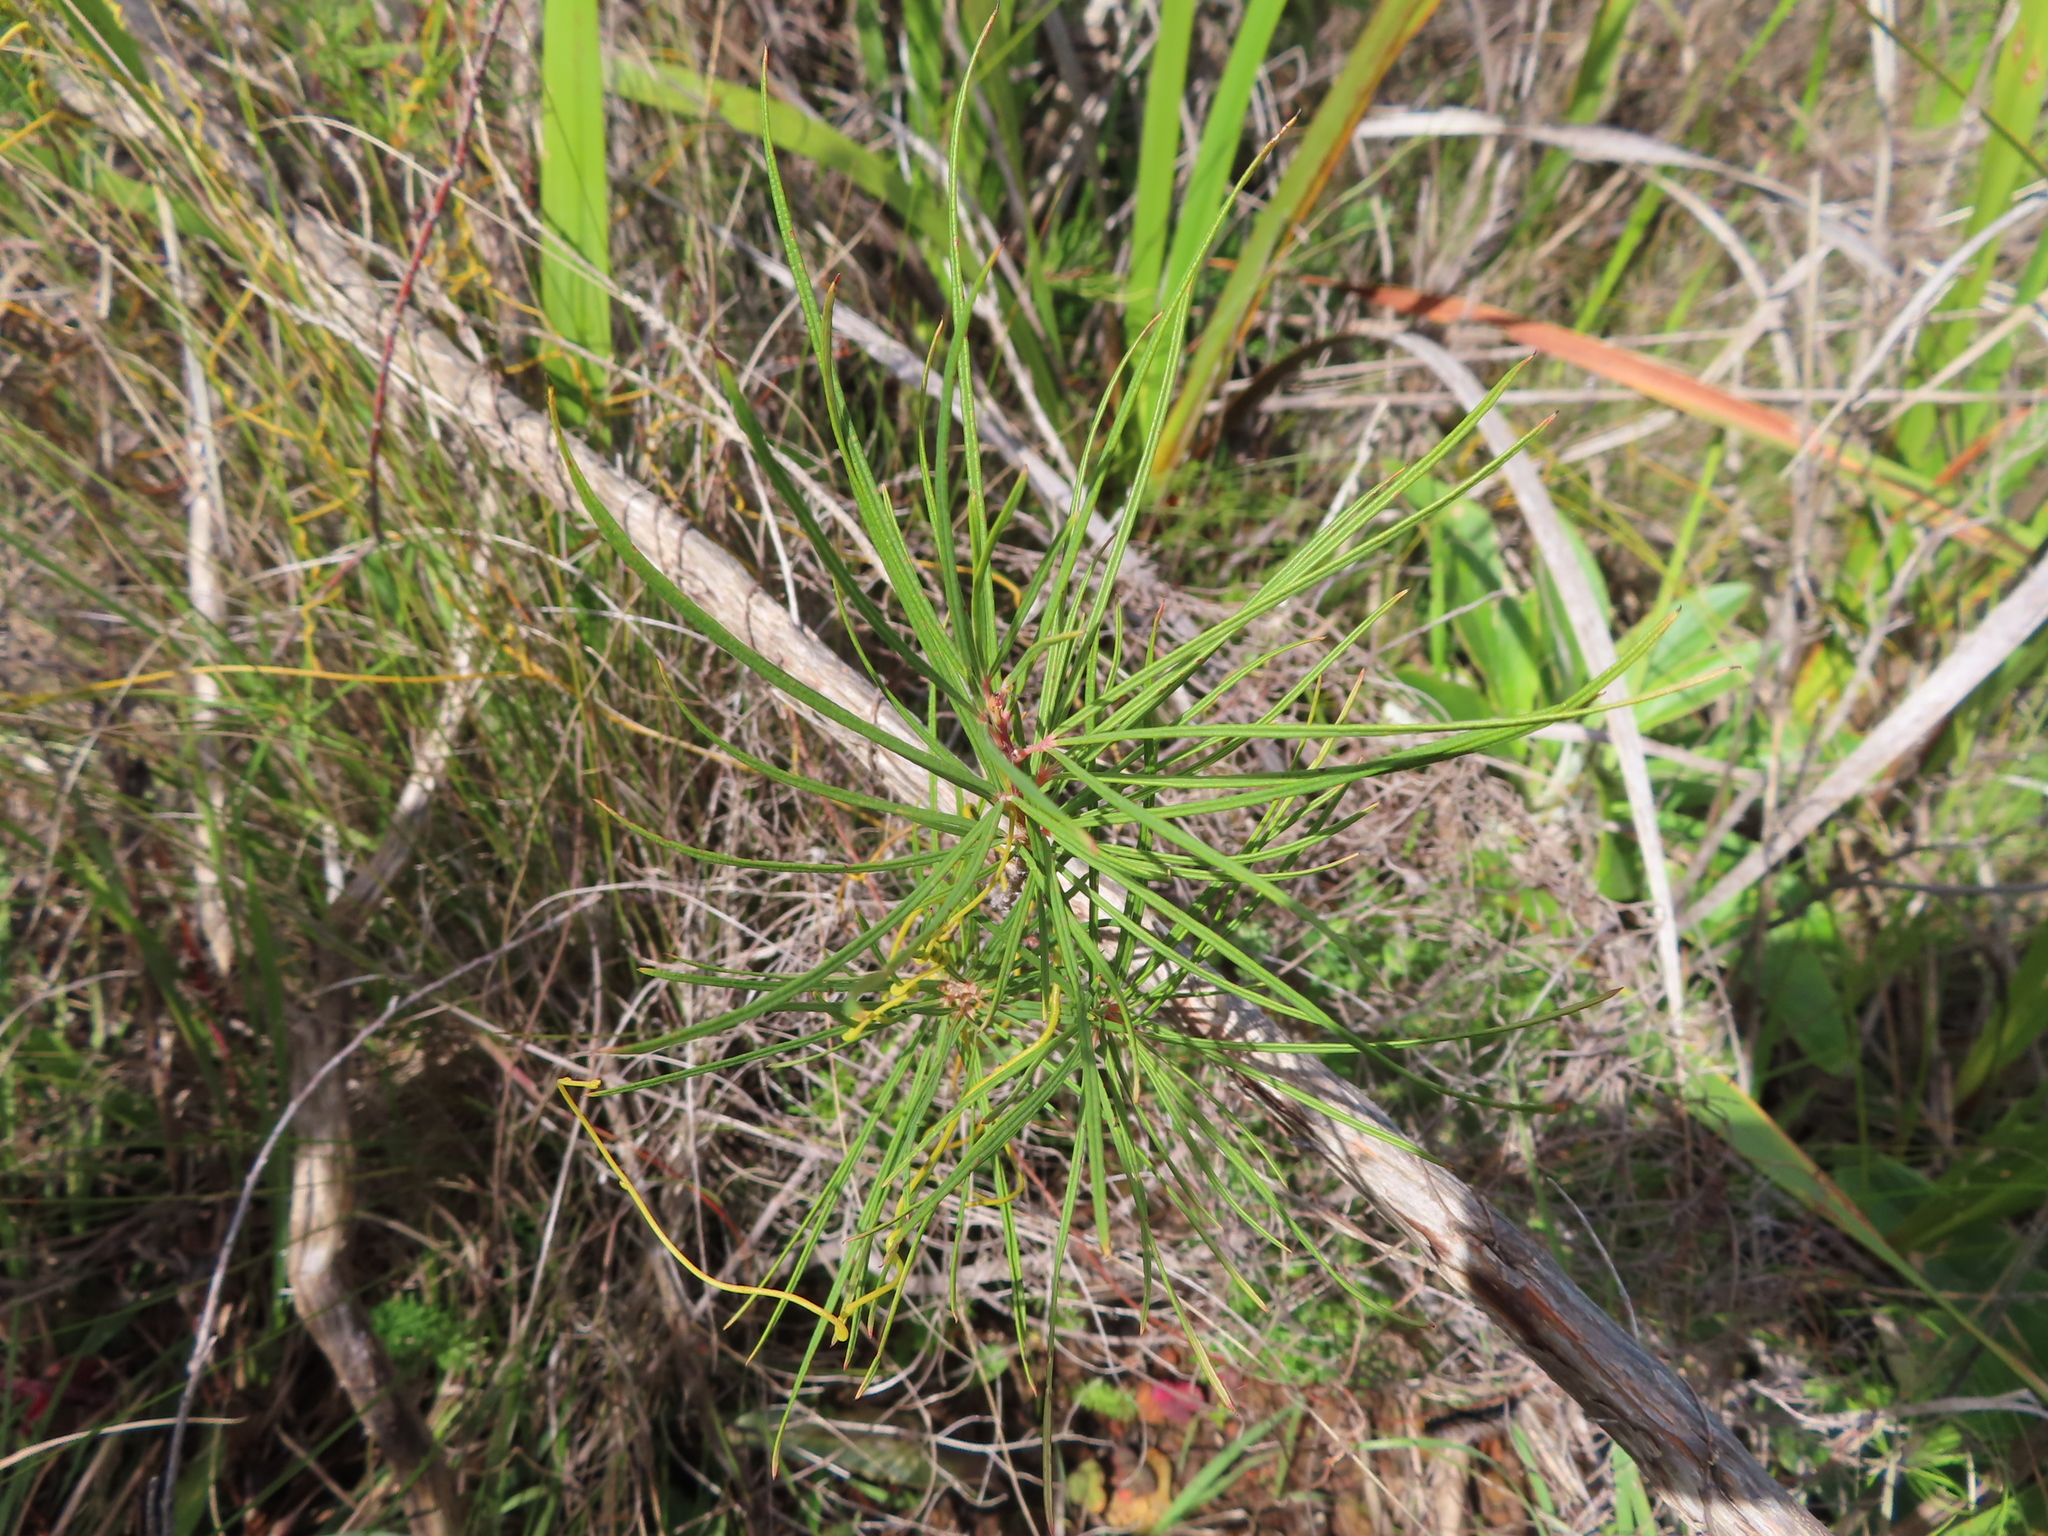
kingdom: Plantae
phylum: Tracheophyta
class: Magnoliopsida
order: Sapindales
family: Anacardiaceae
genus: Searsia
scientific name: Searsia rosmarinifolia
